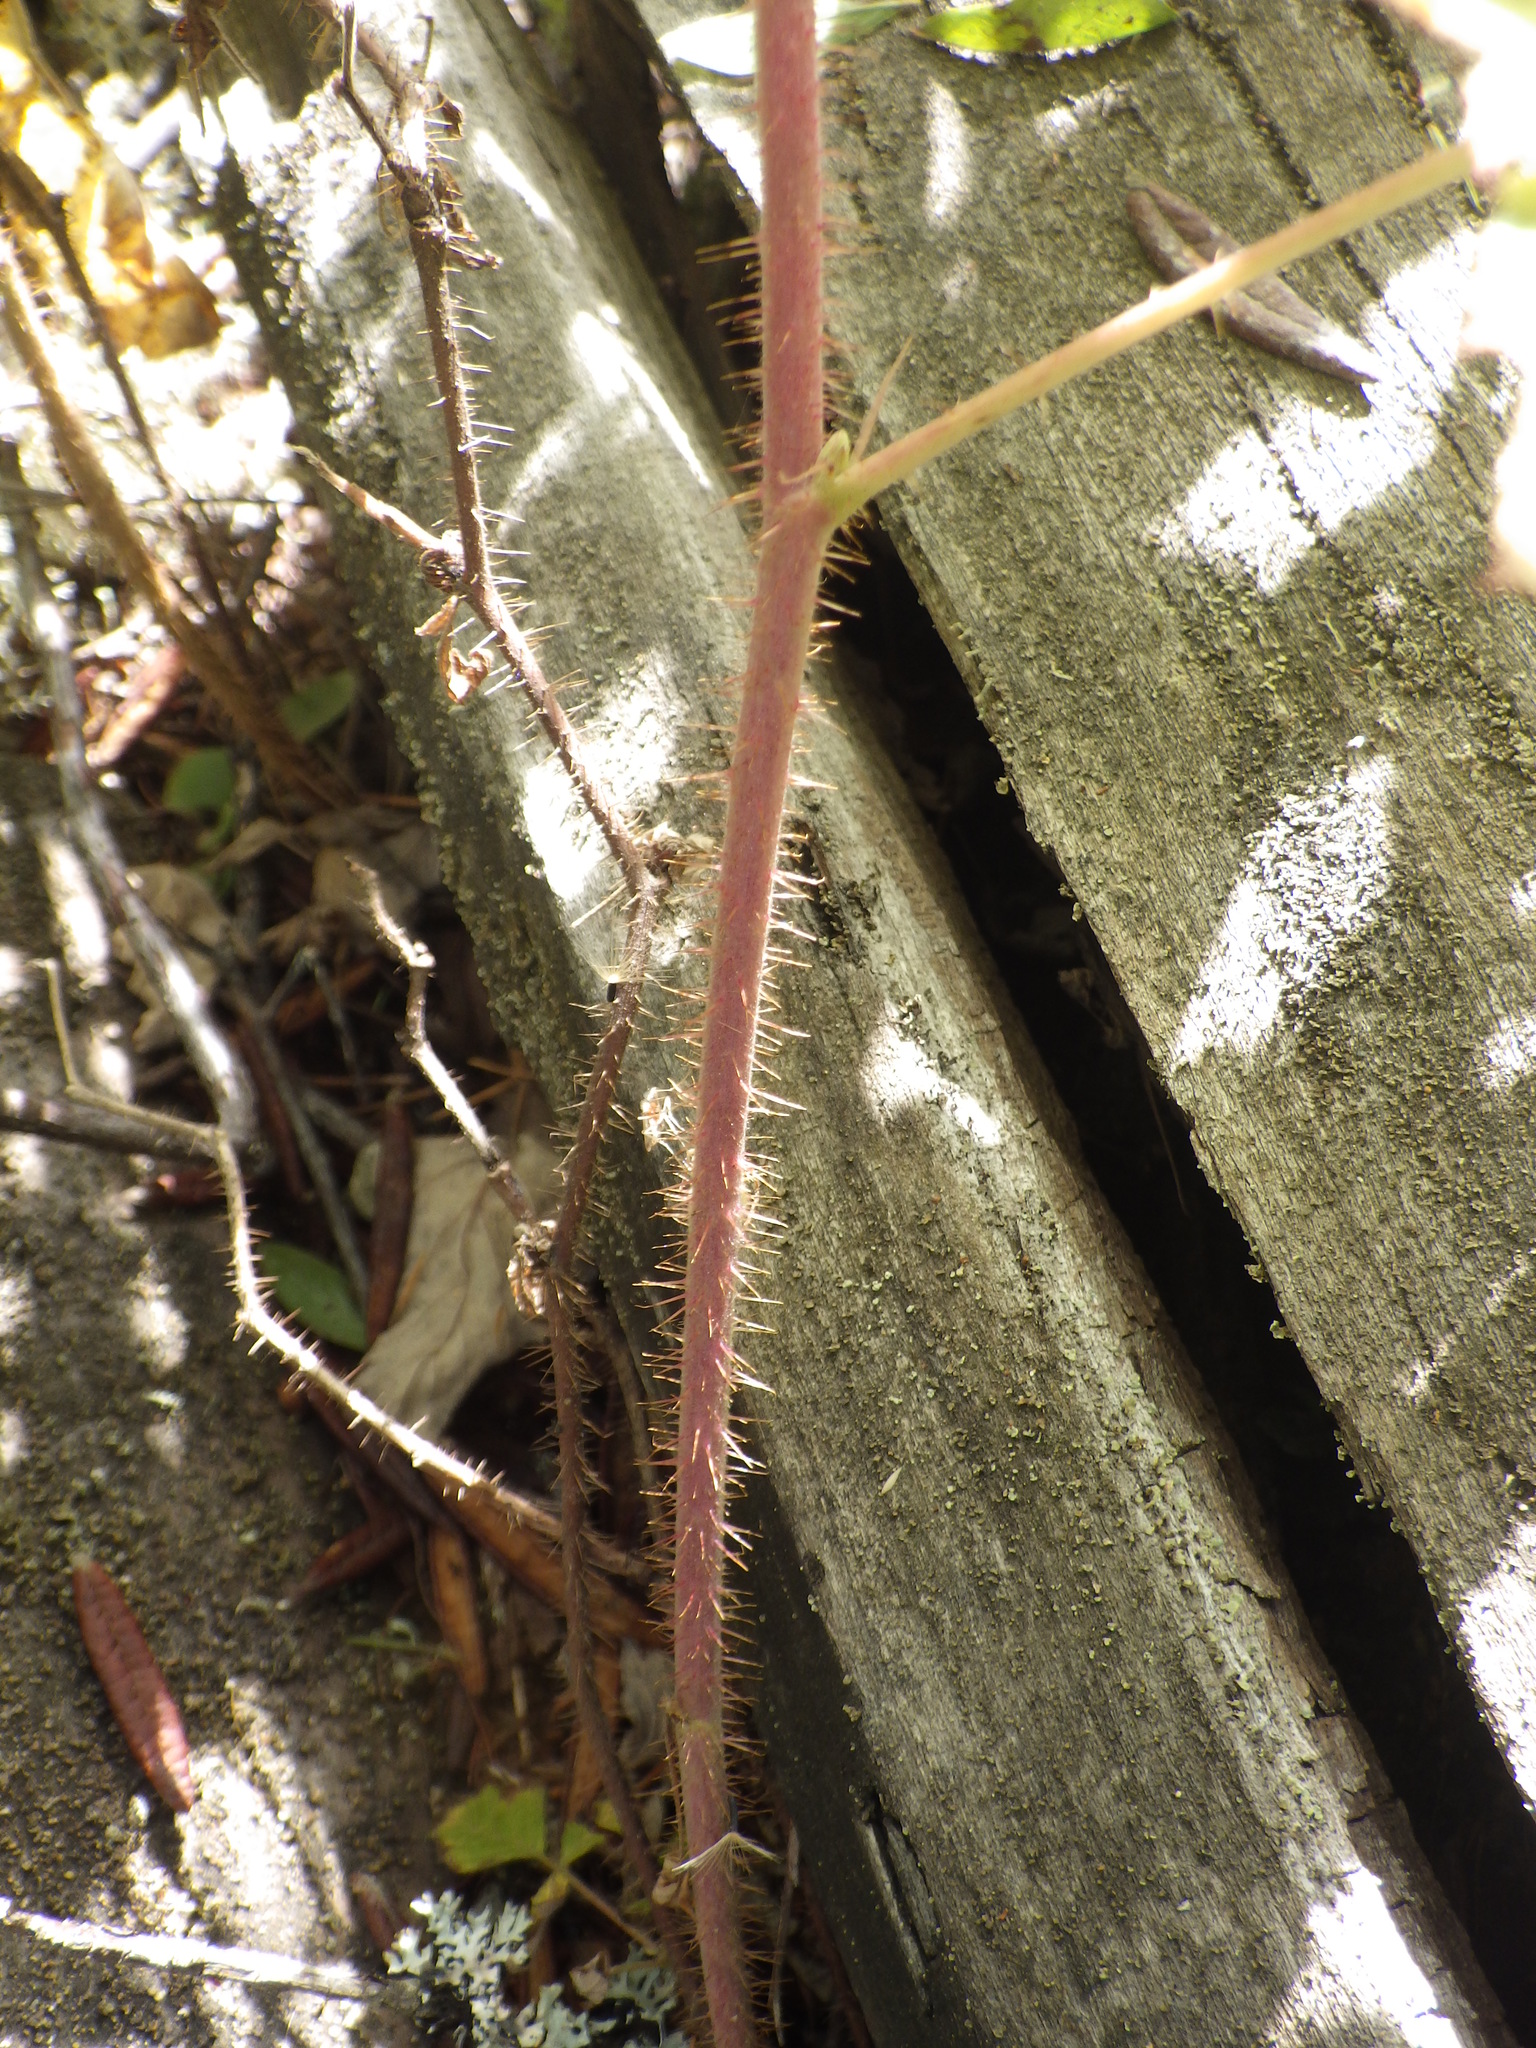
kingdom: Plantae
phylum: Tracheophyta
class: Magnoliopsida
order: Rosales
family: Rosaceae
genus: Rubus
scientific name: Rubus idaeus
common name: Raspberry
